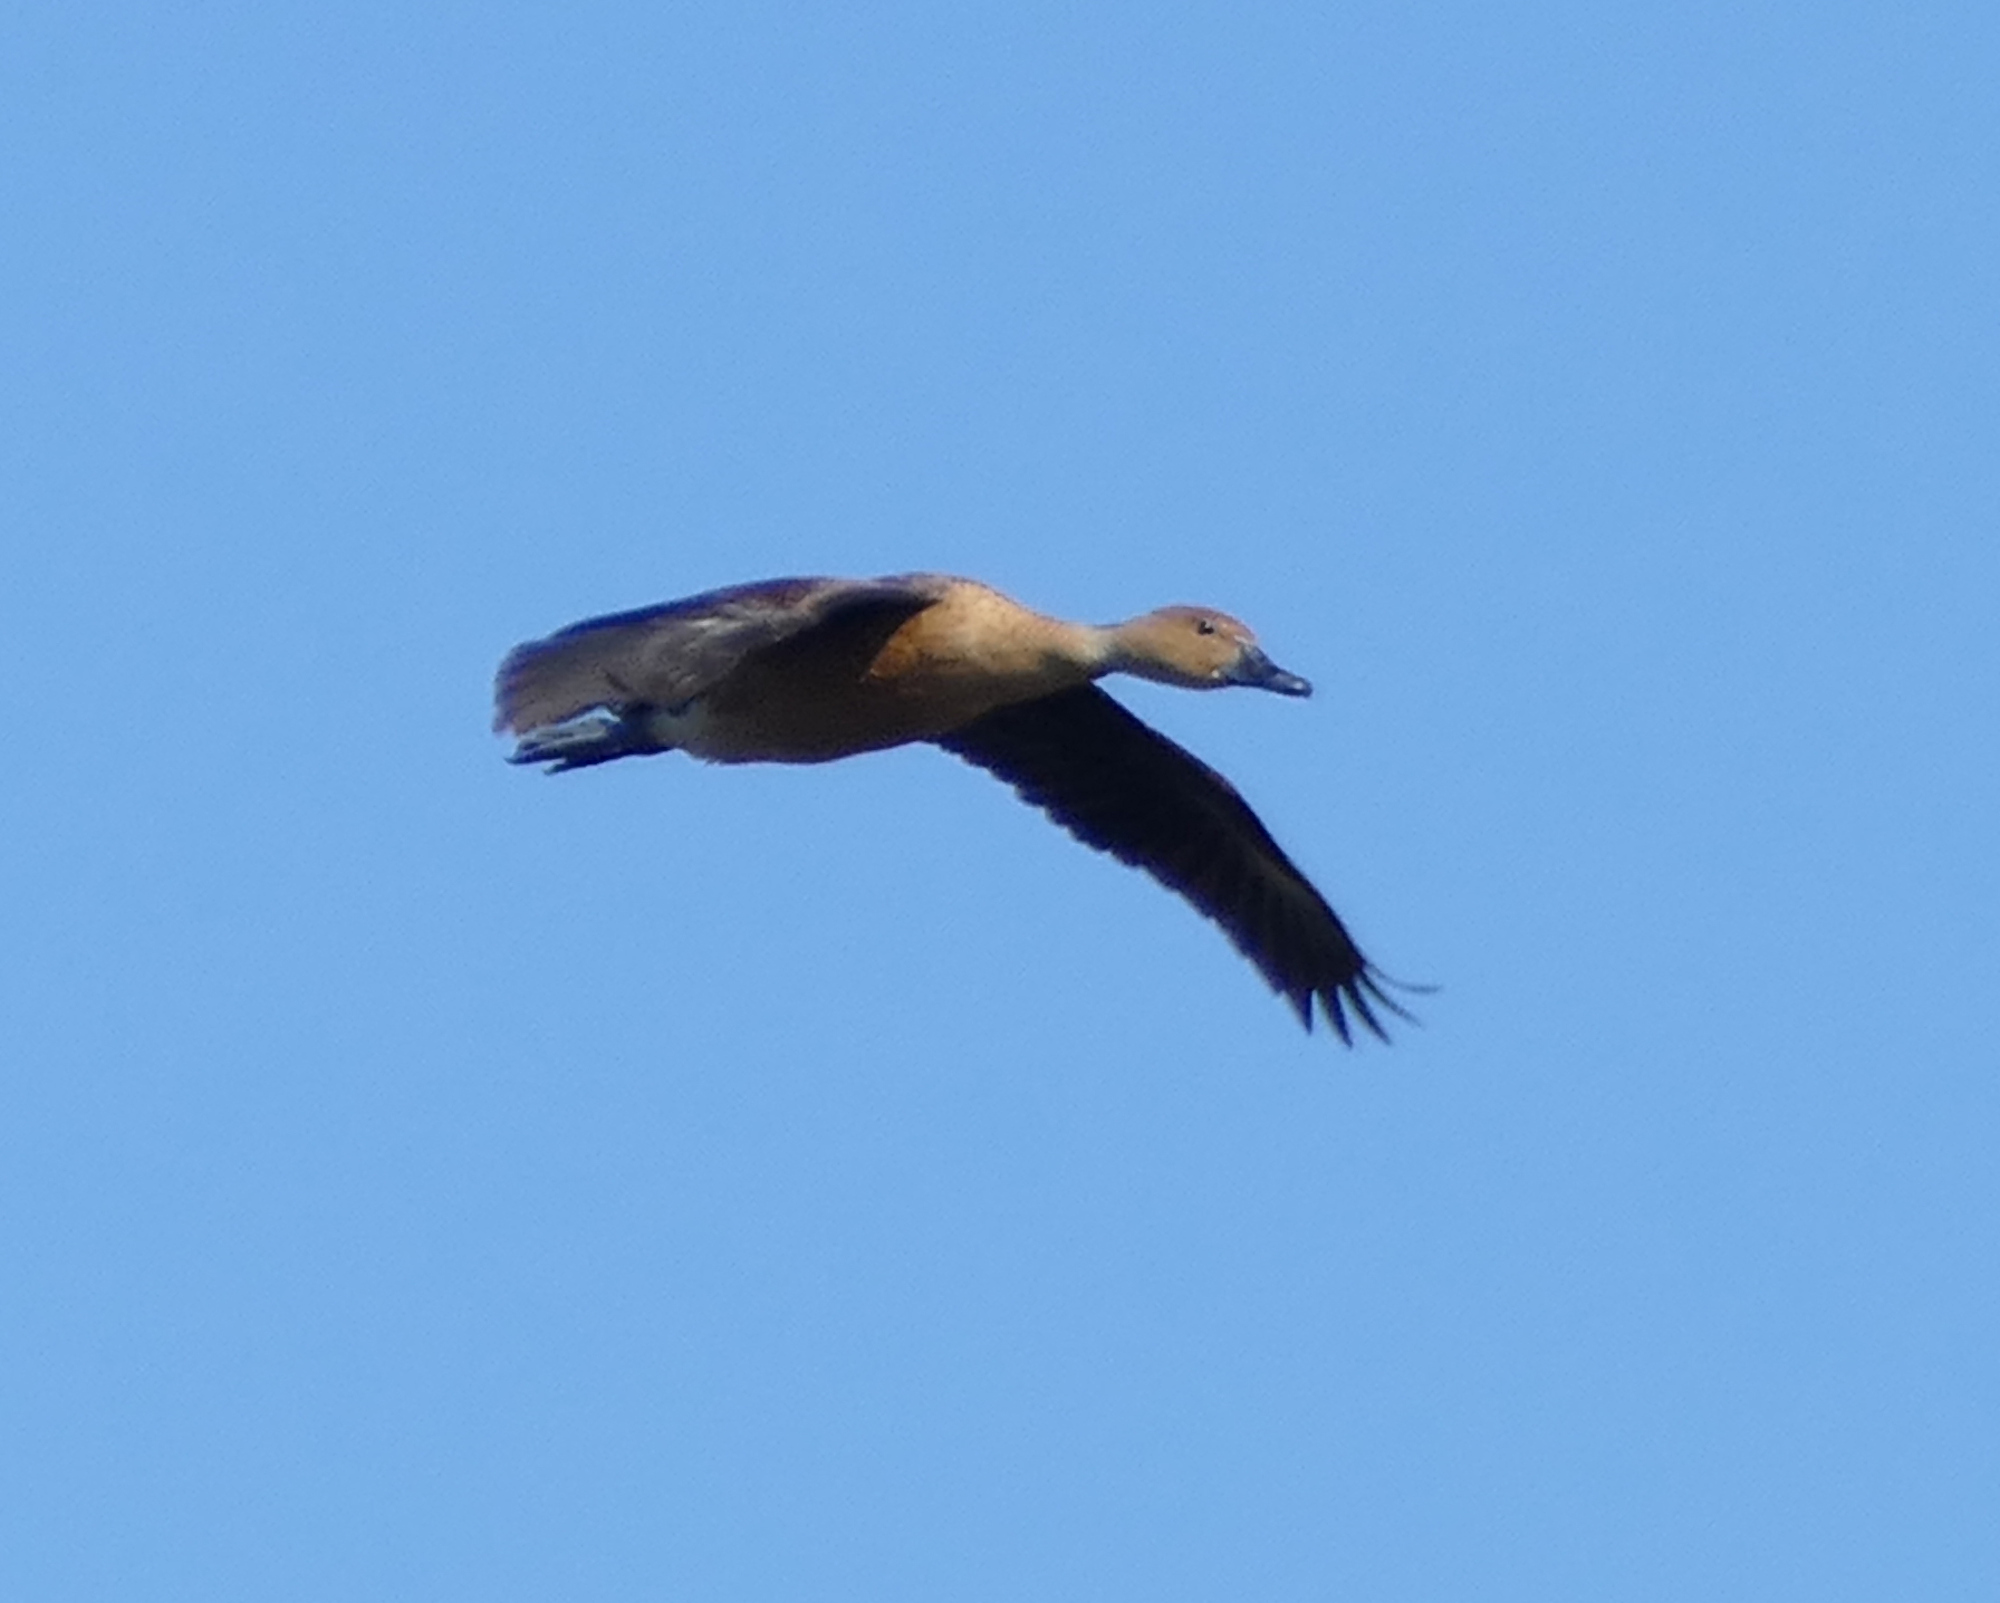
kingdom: Animalia
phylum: Chordata
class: Aves
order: Anseriformes
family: Anatidae
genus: Dendrocygna
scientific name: Dendrocygna bicolor
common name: Fulvous whistling duck
